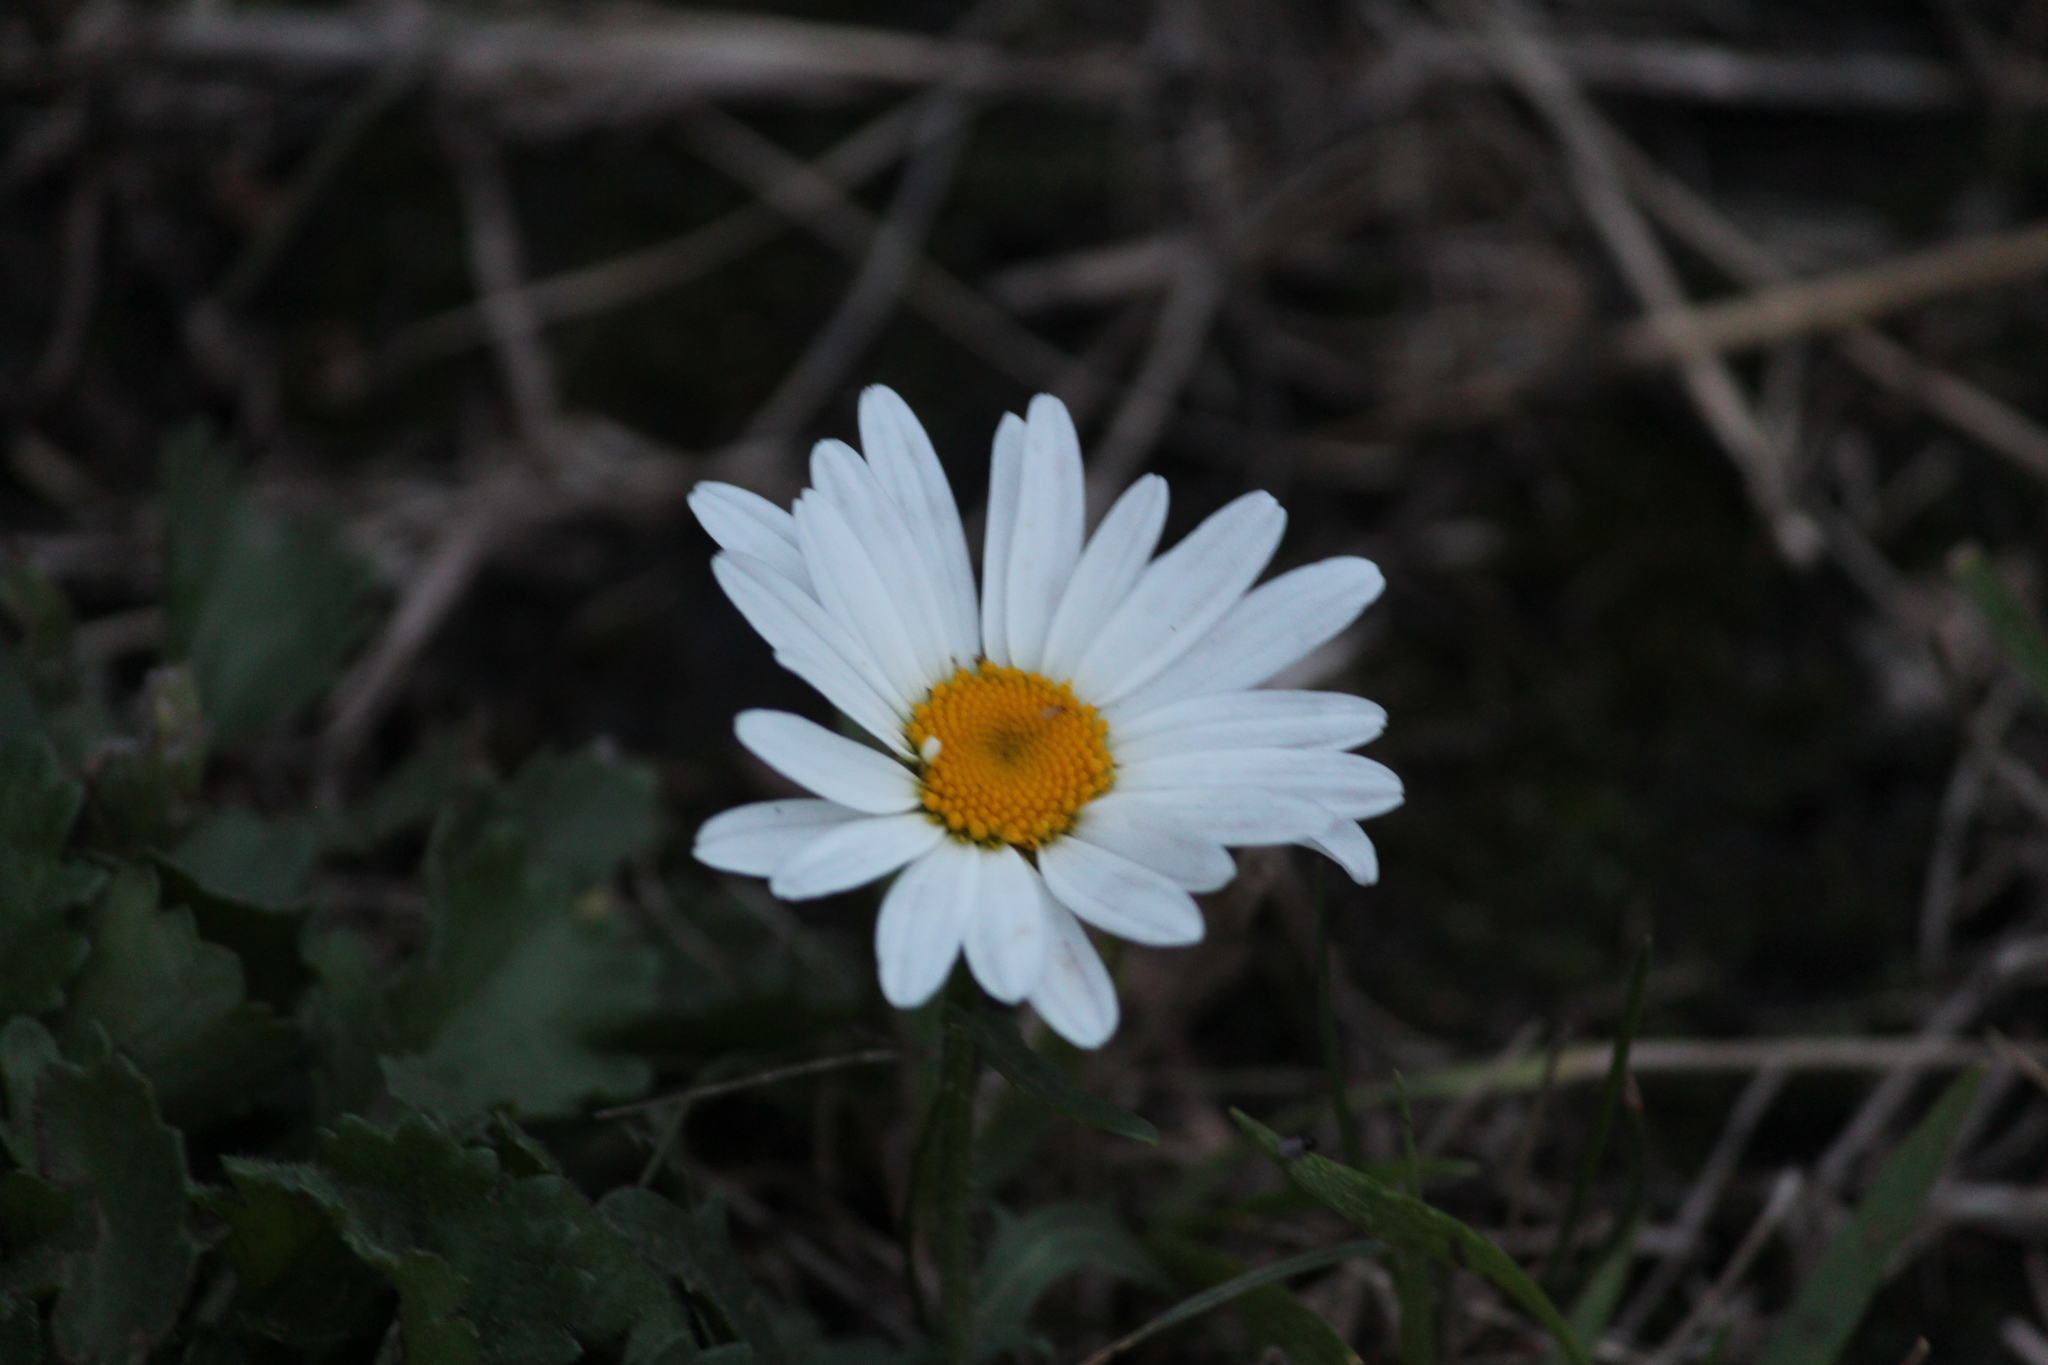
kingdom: Plantae
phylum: Tracheophyta
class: Magnoliopsida
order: Asterales
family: Asteraceae
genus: Leucanthemum
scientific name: Leucanthemum vulgare
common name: Oxeye daisy
